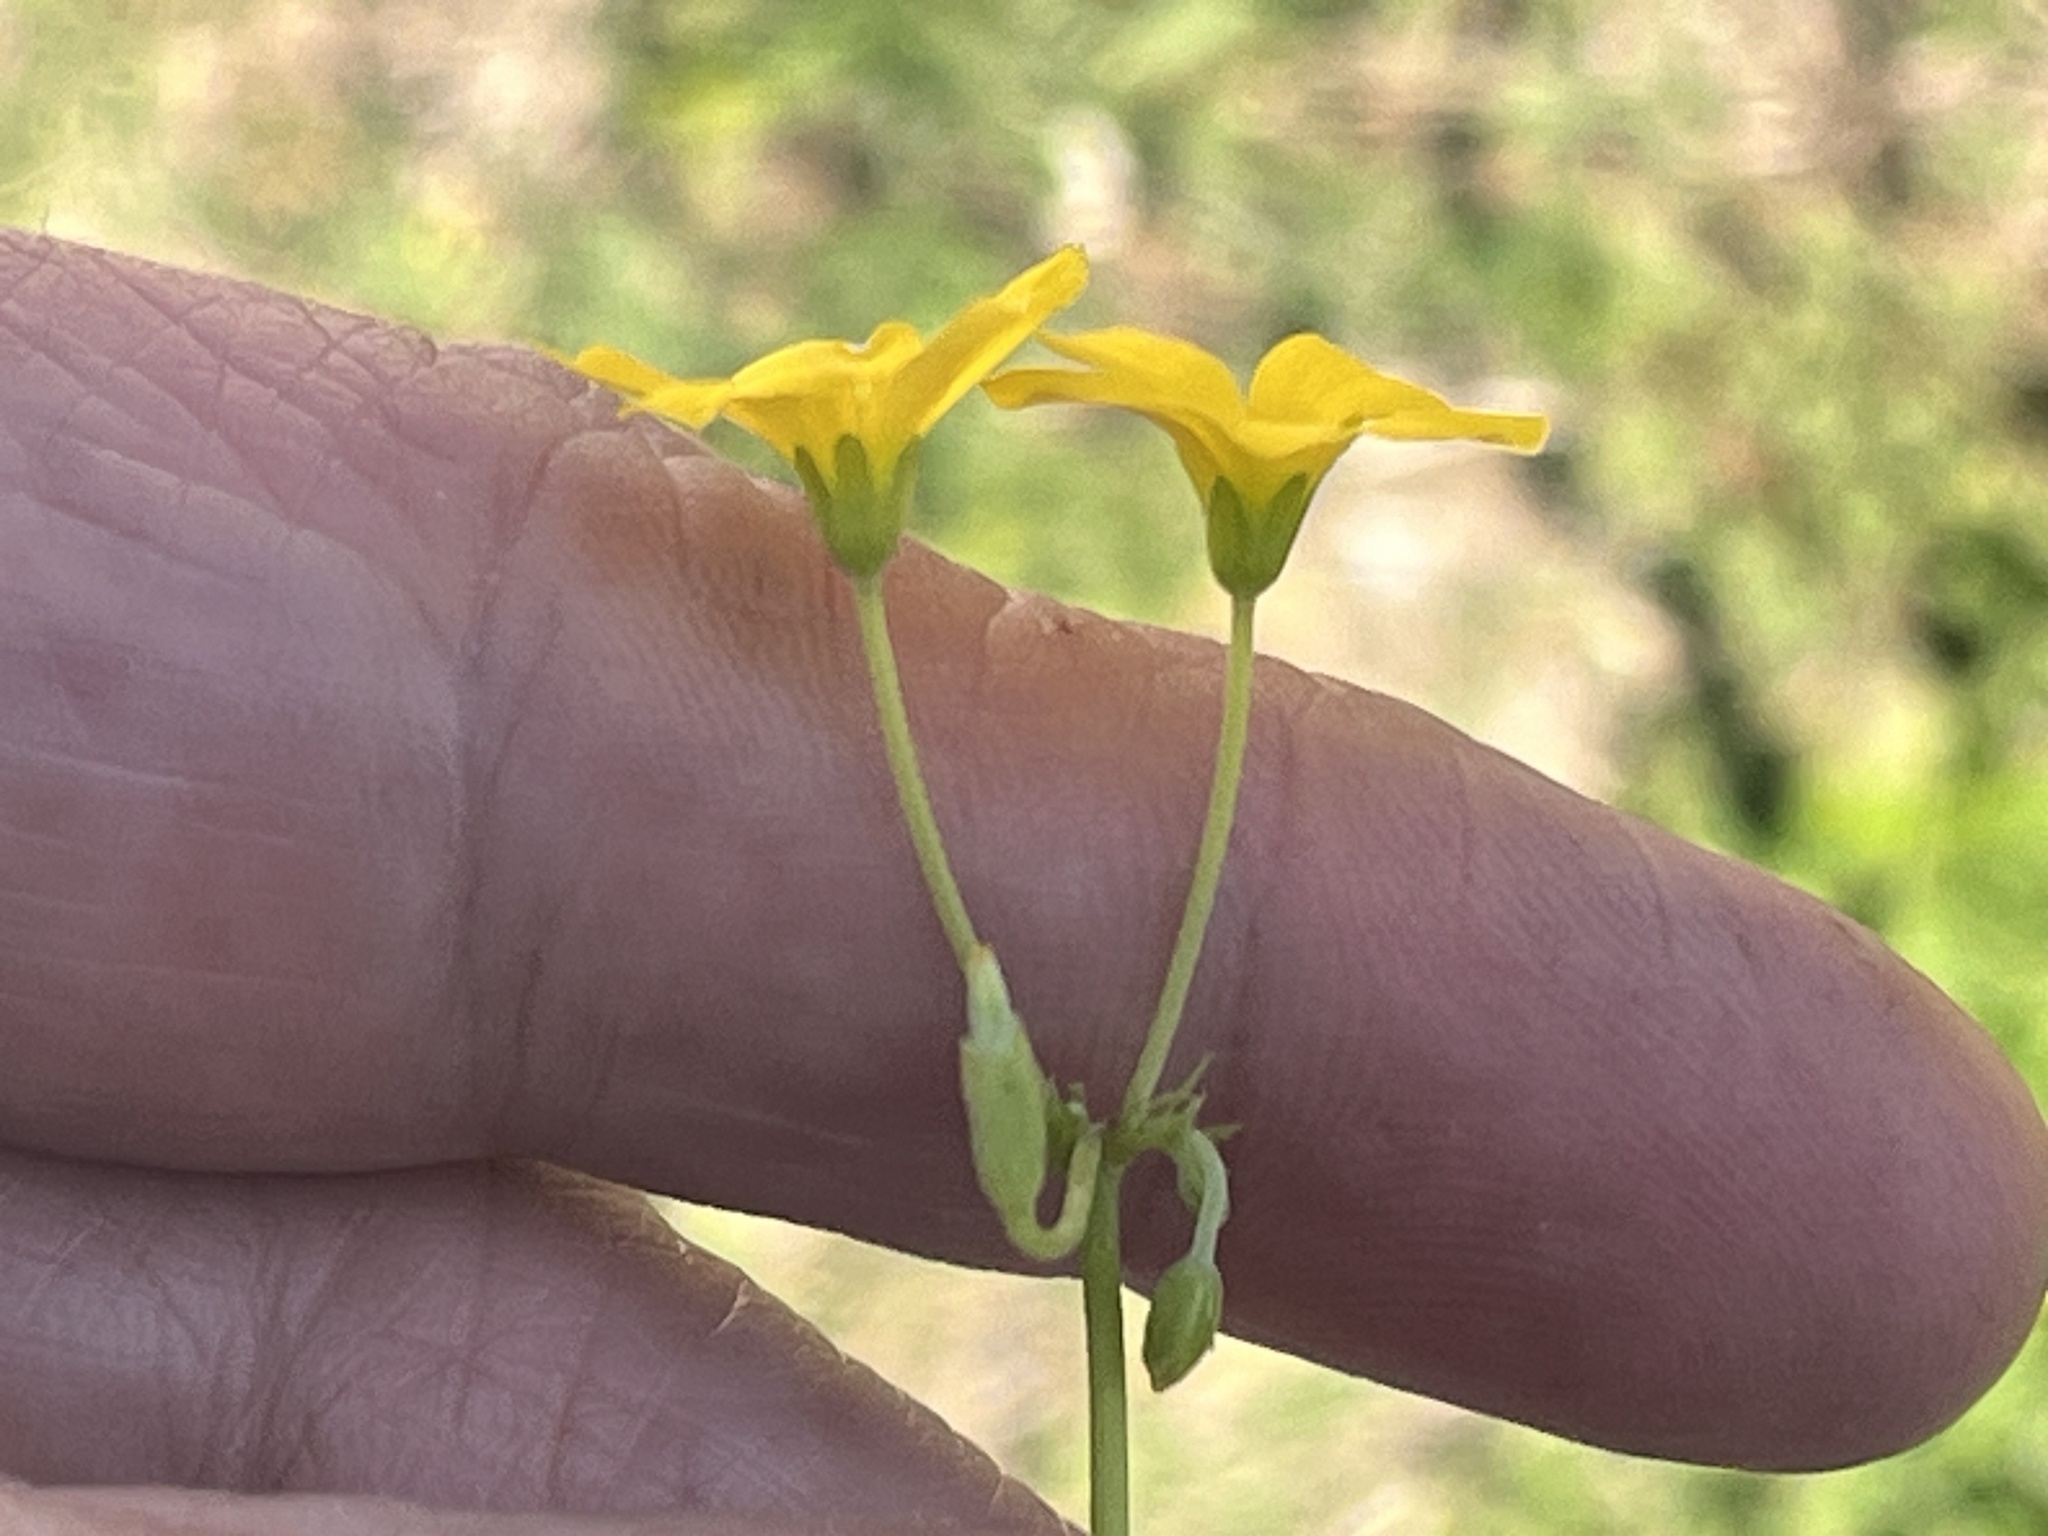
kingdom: Plantae
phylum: Tracheophyta
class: Magnoliopsida
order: Oxalidales
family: Oxalidaceae
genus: Oxalis
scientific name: Oxalis dillenii
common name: Sussex yellow-sorrel
